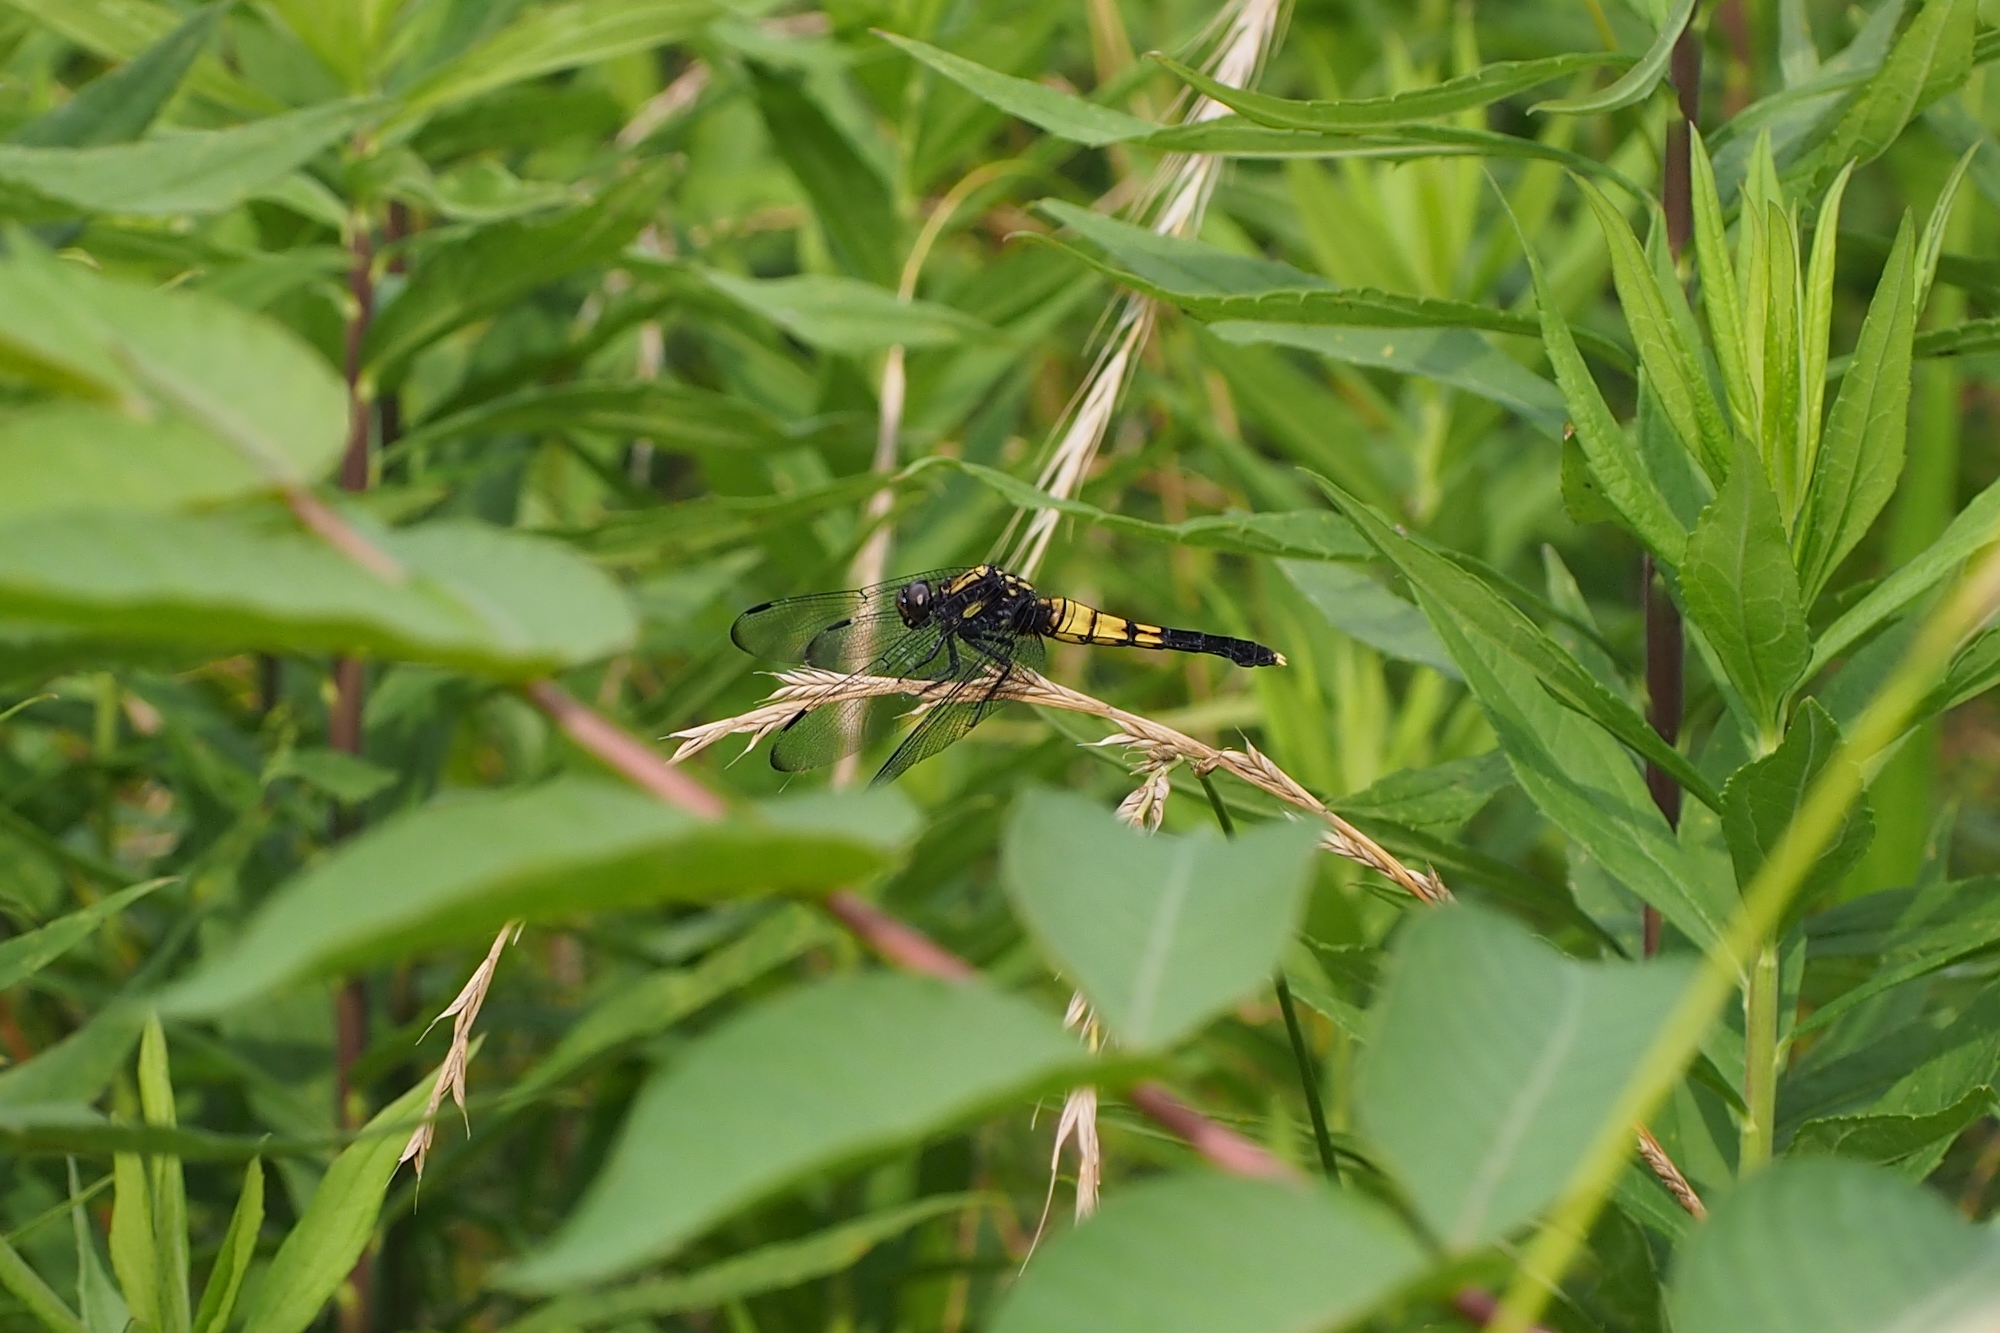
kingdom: Animalia
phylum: Arthropoda
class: Insecta
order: Odonata
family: Libellulidae
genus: Orthetrum
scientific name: Orthetrum melania
